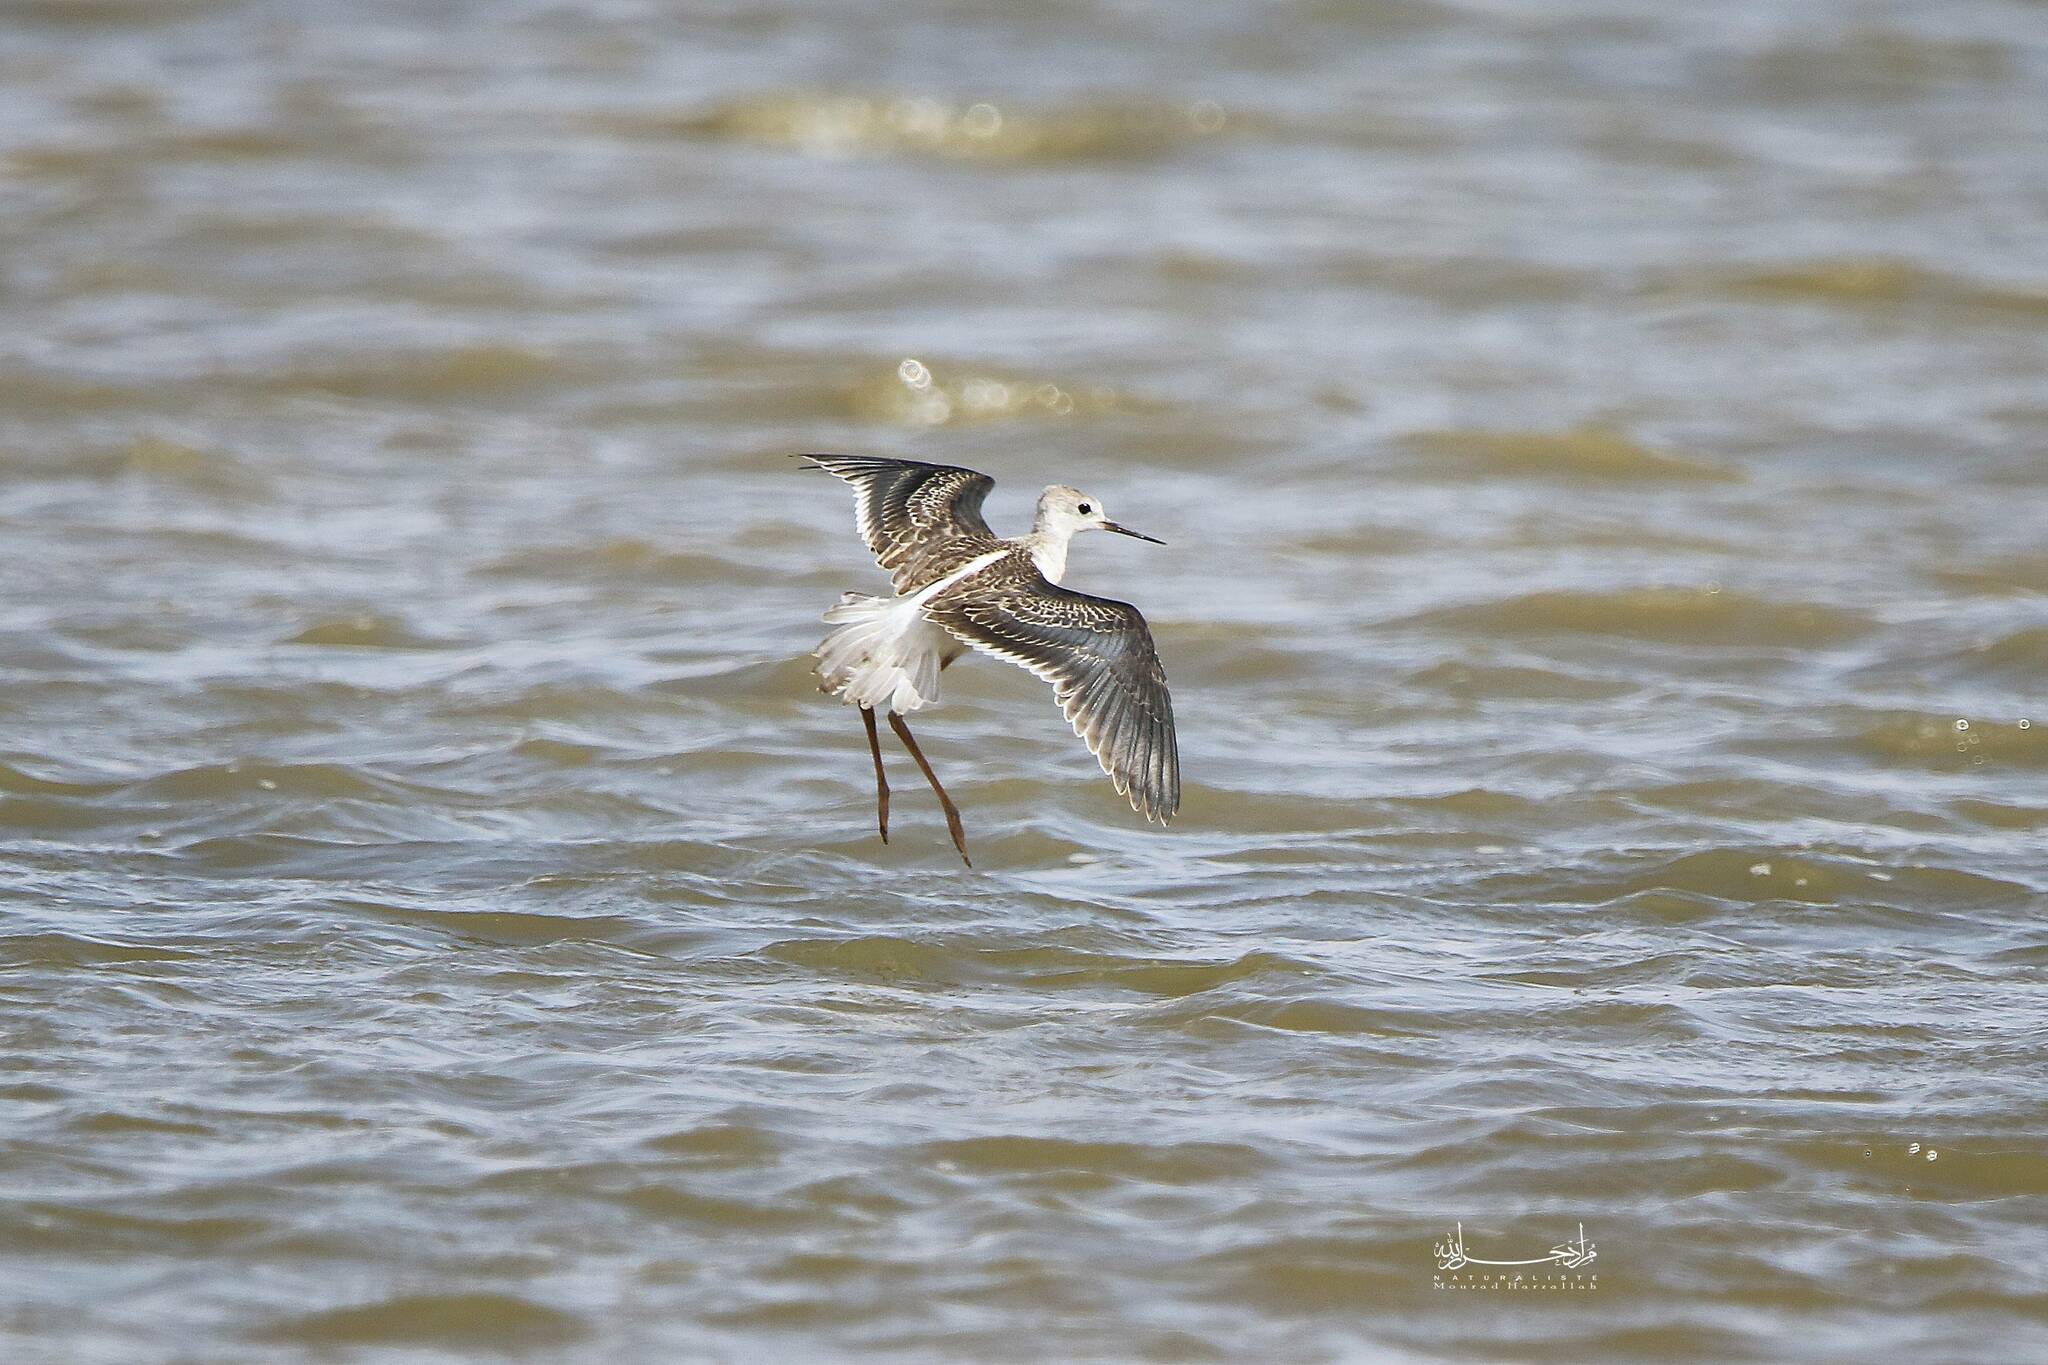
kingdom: Animalia
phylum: Chordata
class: Aves
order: Charadriiformes
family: Recurvirostridae
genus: Himantopus
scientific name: Himantopus himantopus
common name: Black-winged stilt
